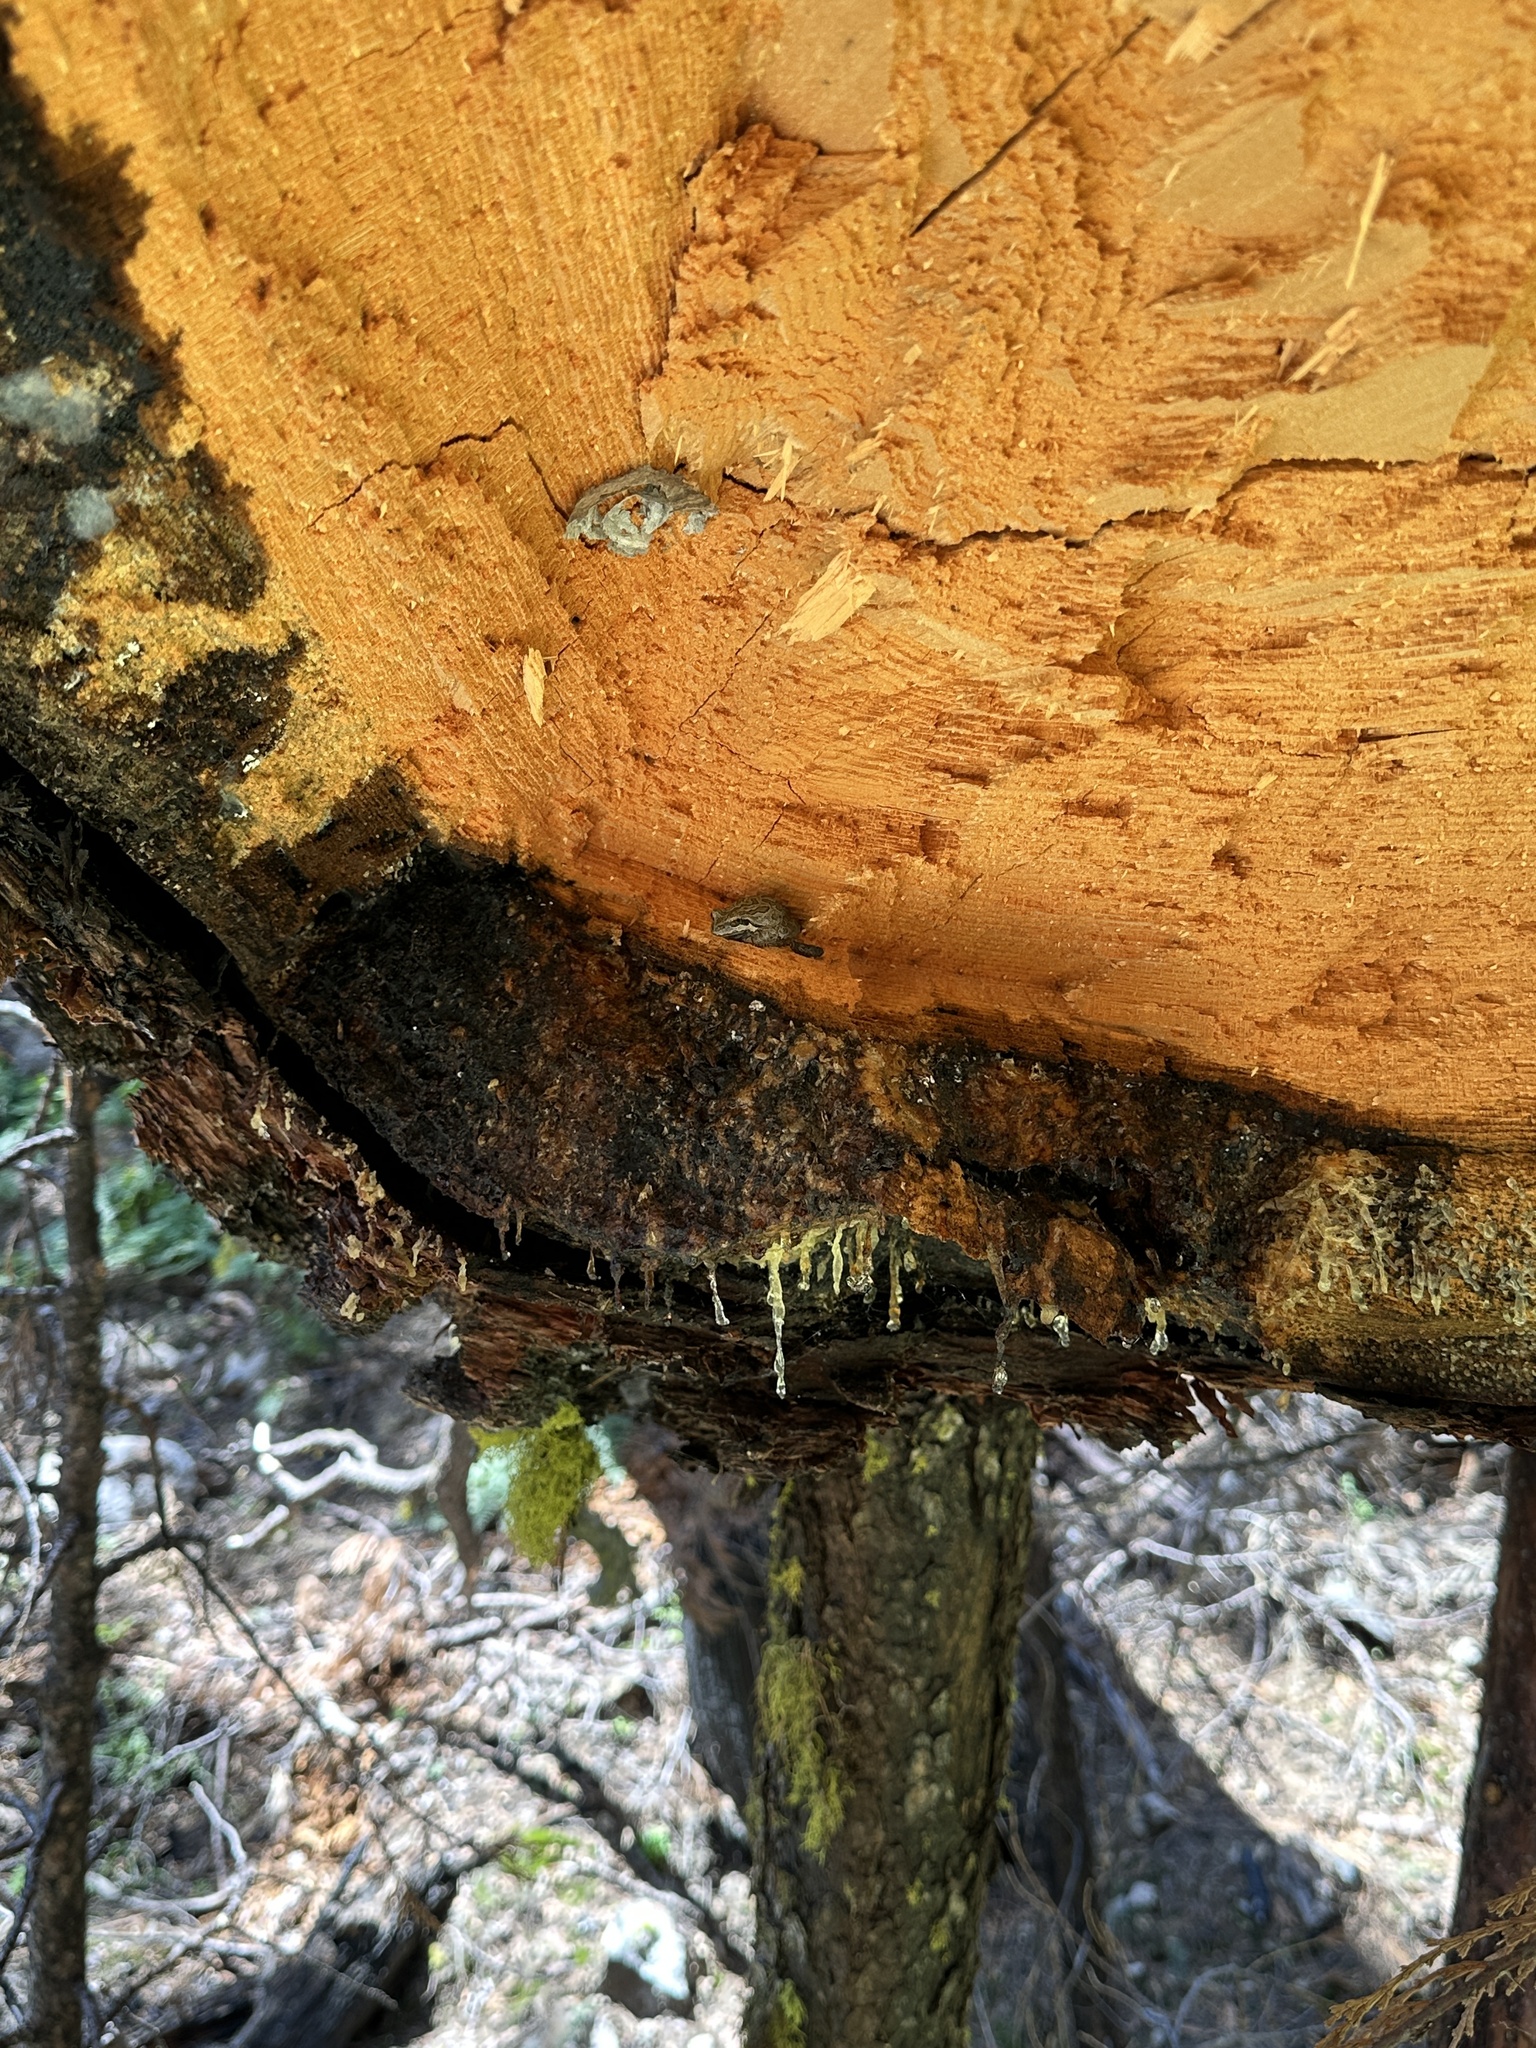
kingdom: Animalia
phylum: Chordata
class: Amphibia
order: Anura
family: Hylidae
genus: Pseudacris
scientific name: Pseudacris regilla
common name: Pacific chorus frog
